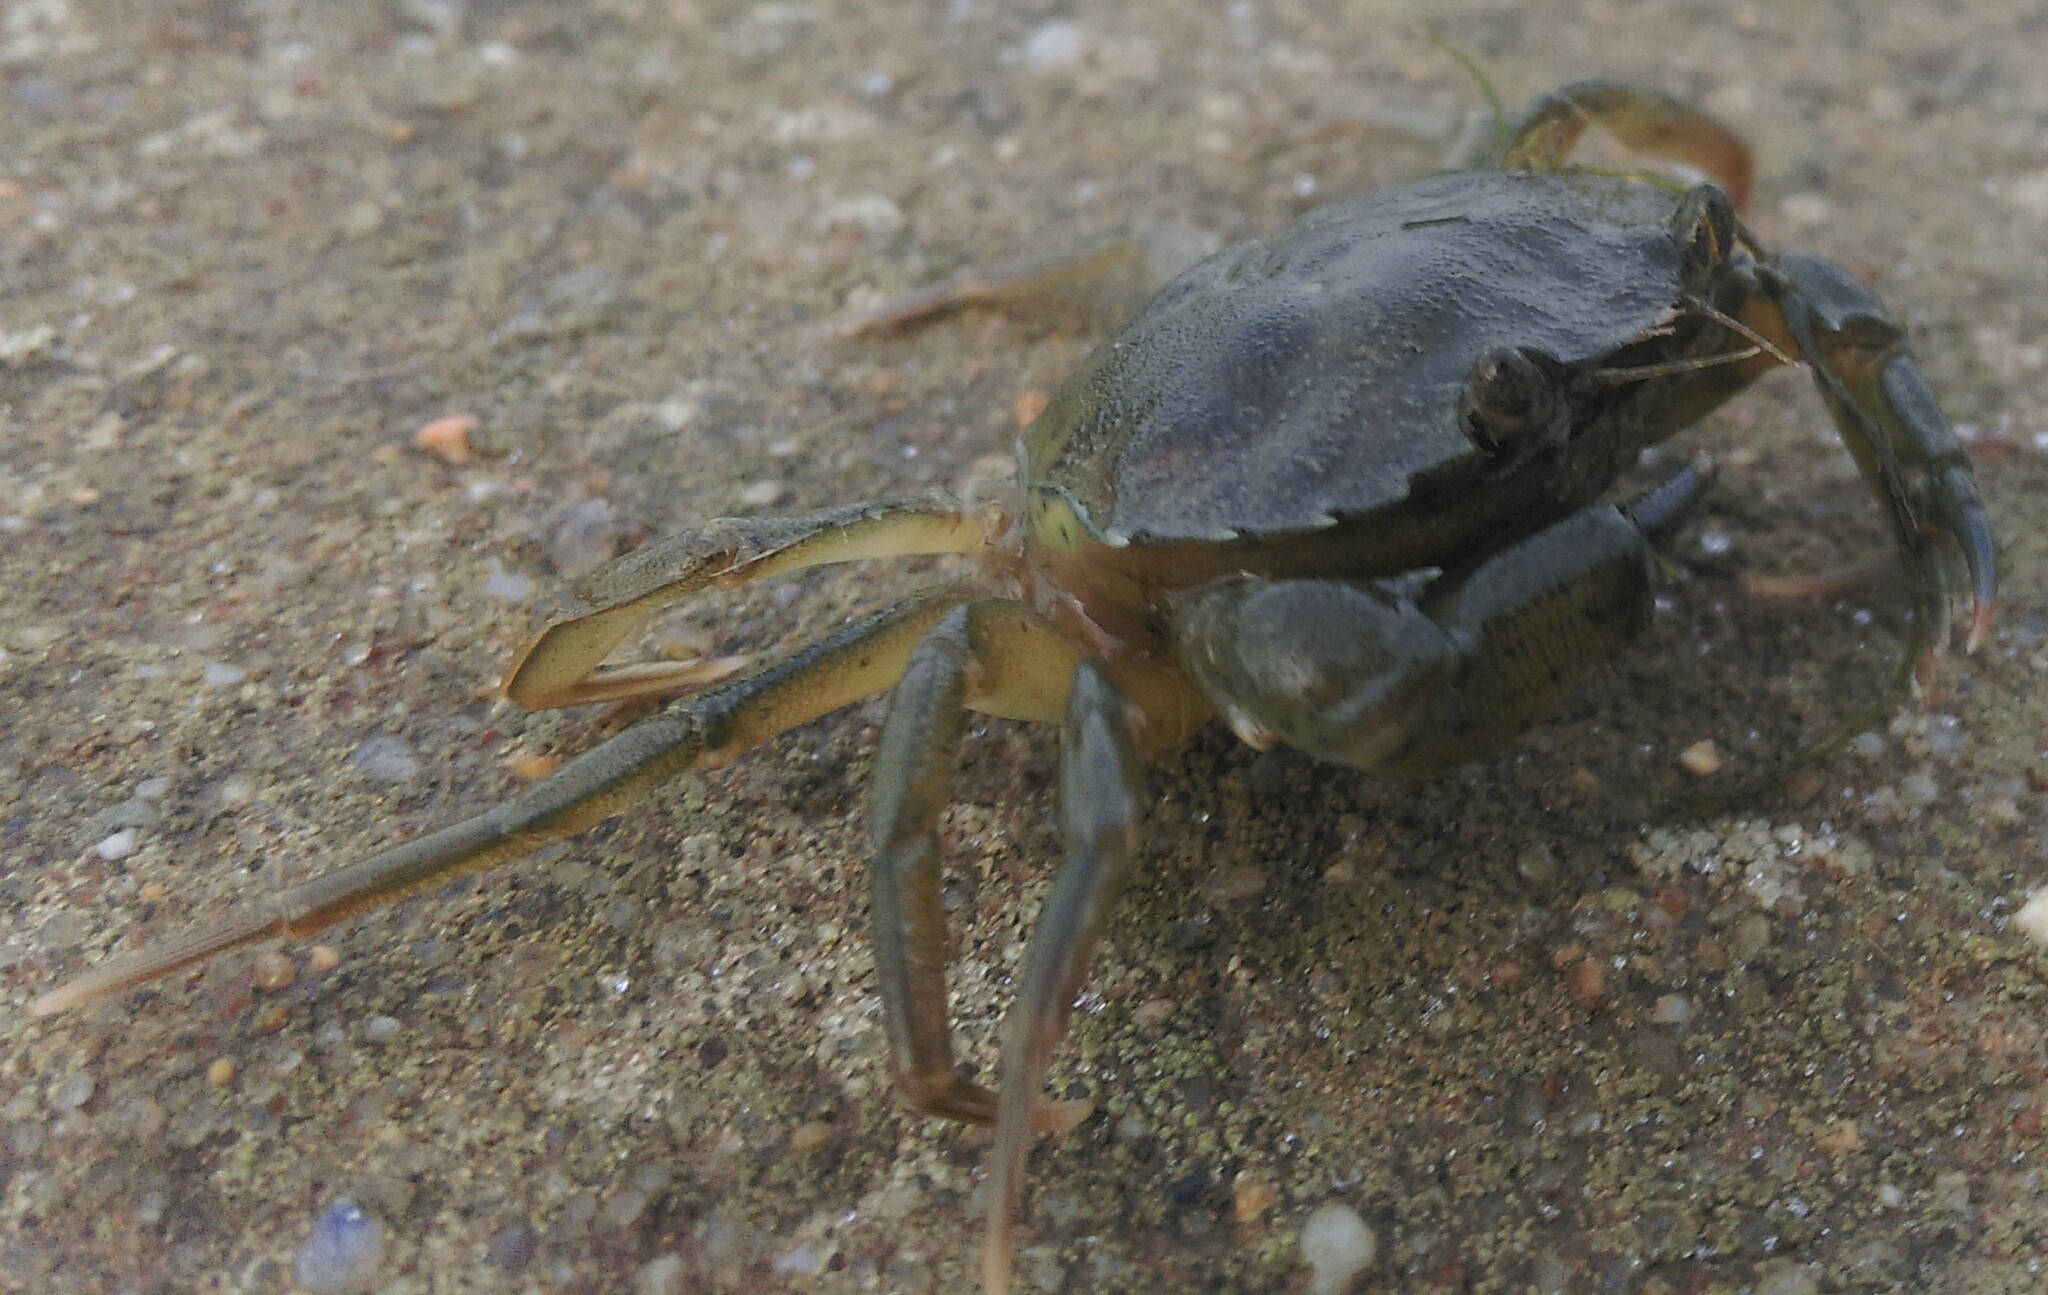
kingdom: Animalia
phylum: Arthropoda
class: Malacostraca
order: Decapoda
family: Carcinidae
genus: Carcinus
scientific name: Carcinus maenas
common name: European green crab
